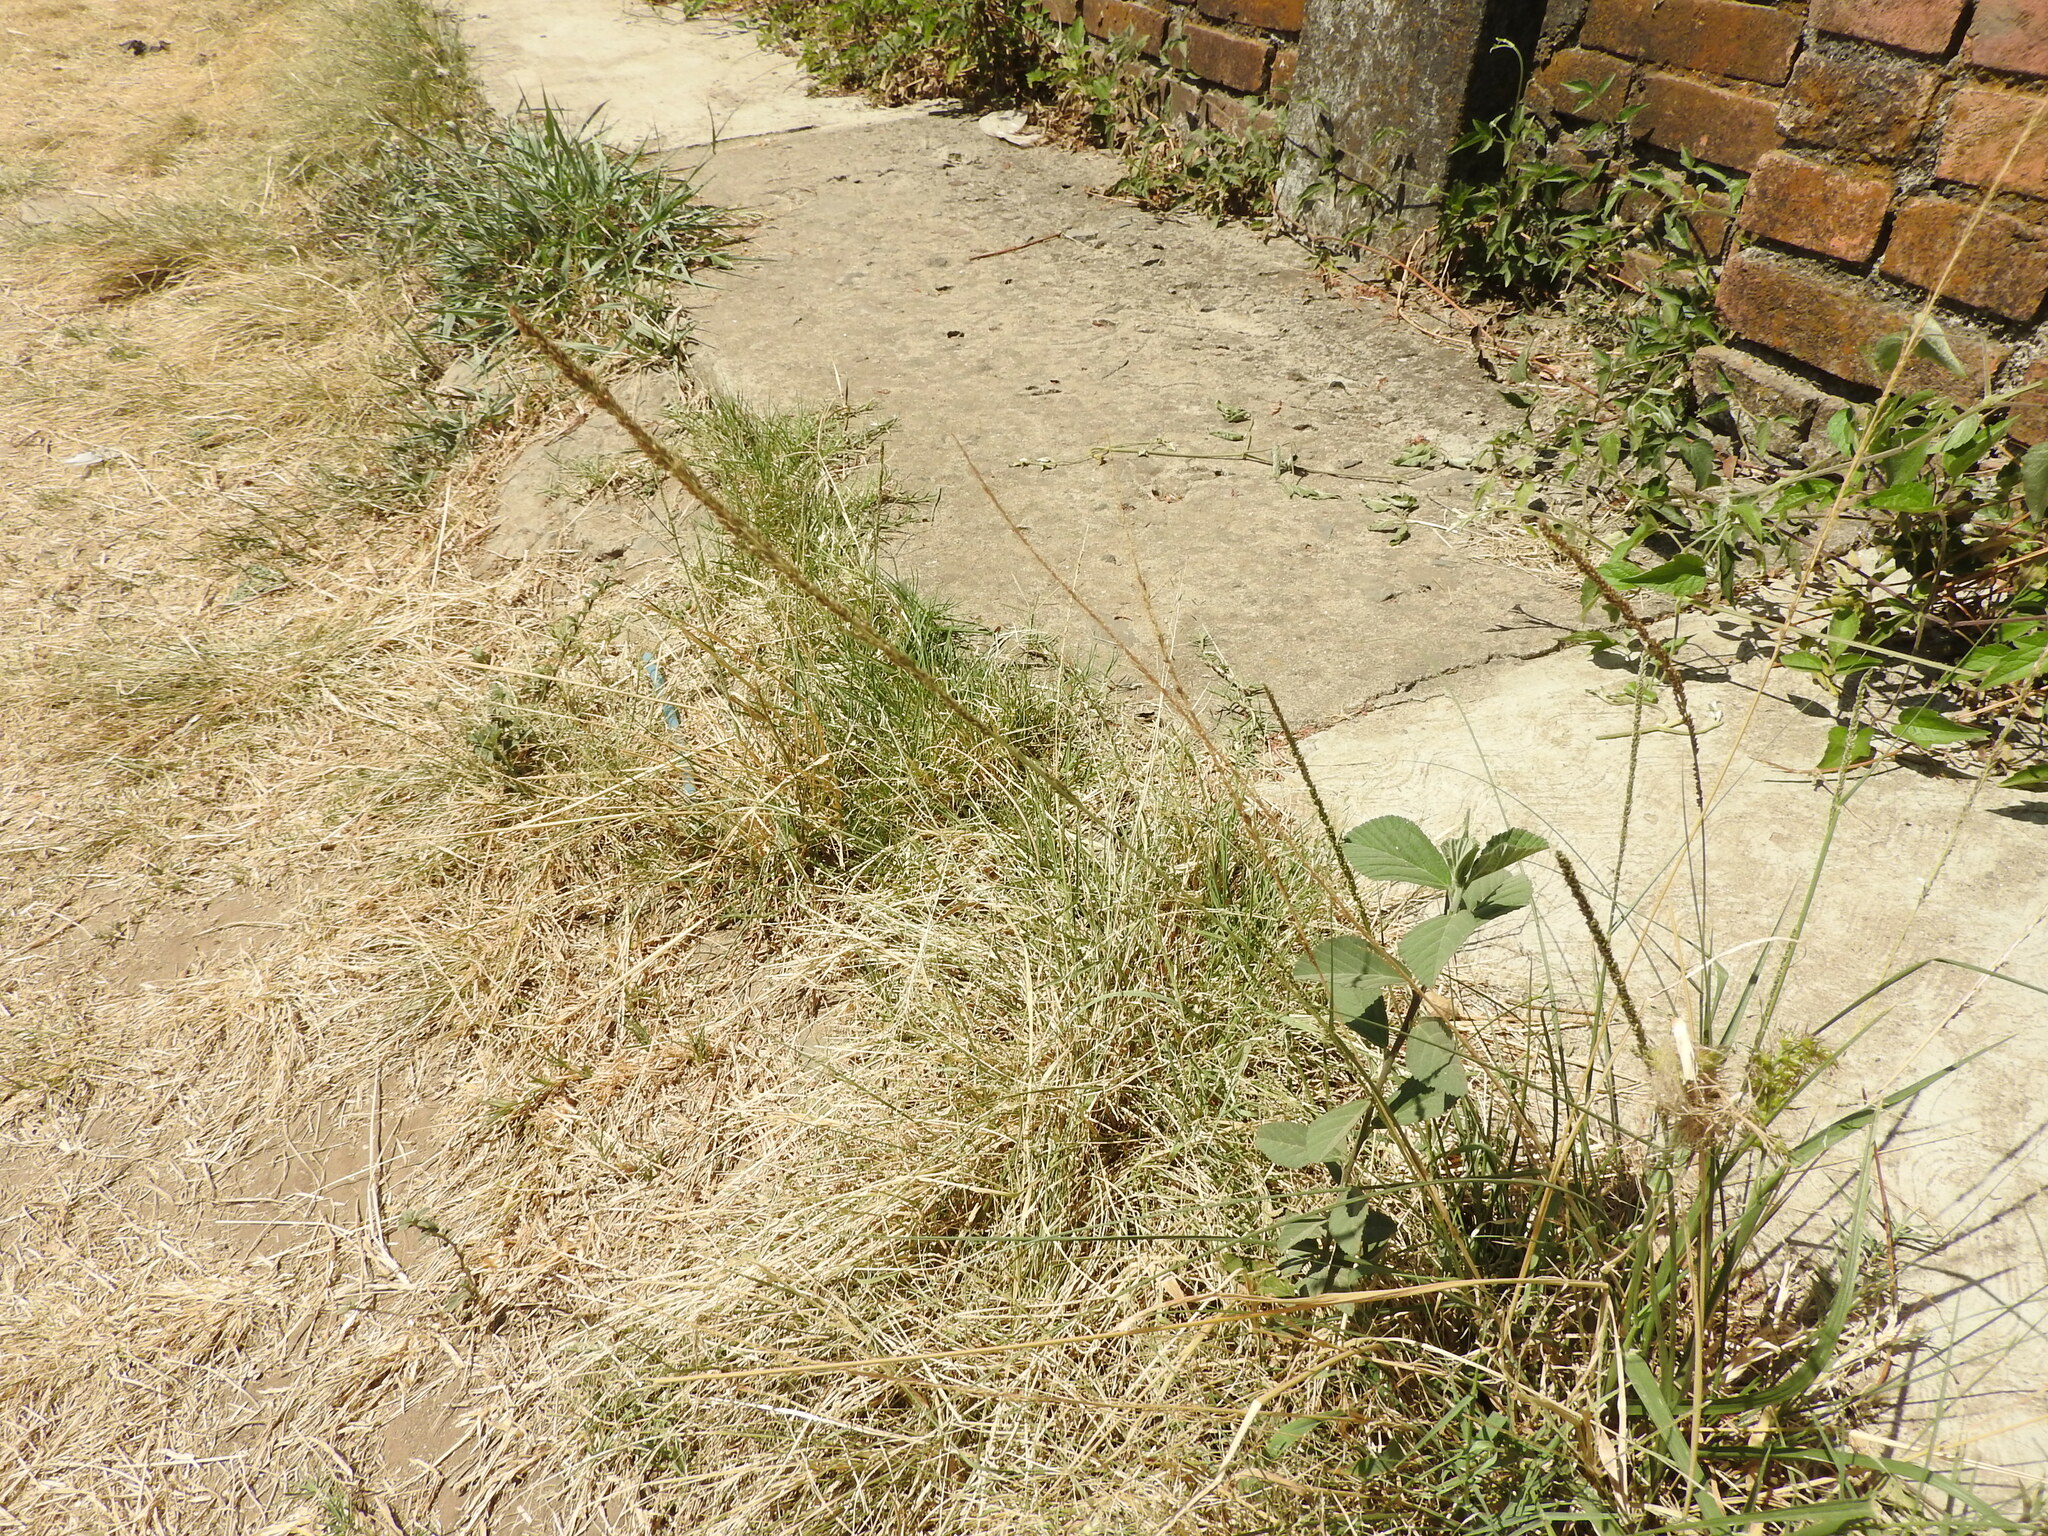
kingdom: Plantae
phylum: Tracheophyta
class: Liliopsida
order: Poales
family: Poaceae
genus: Muhlenbergia
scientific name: Muhlenbergia dubia
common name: Pine muhly
